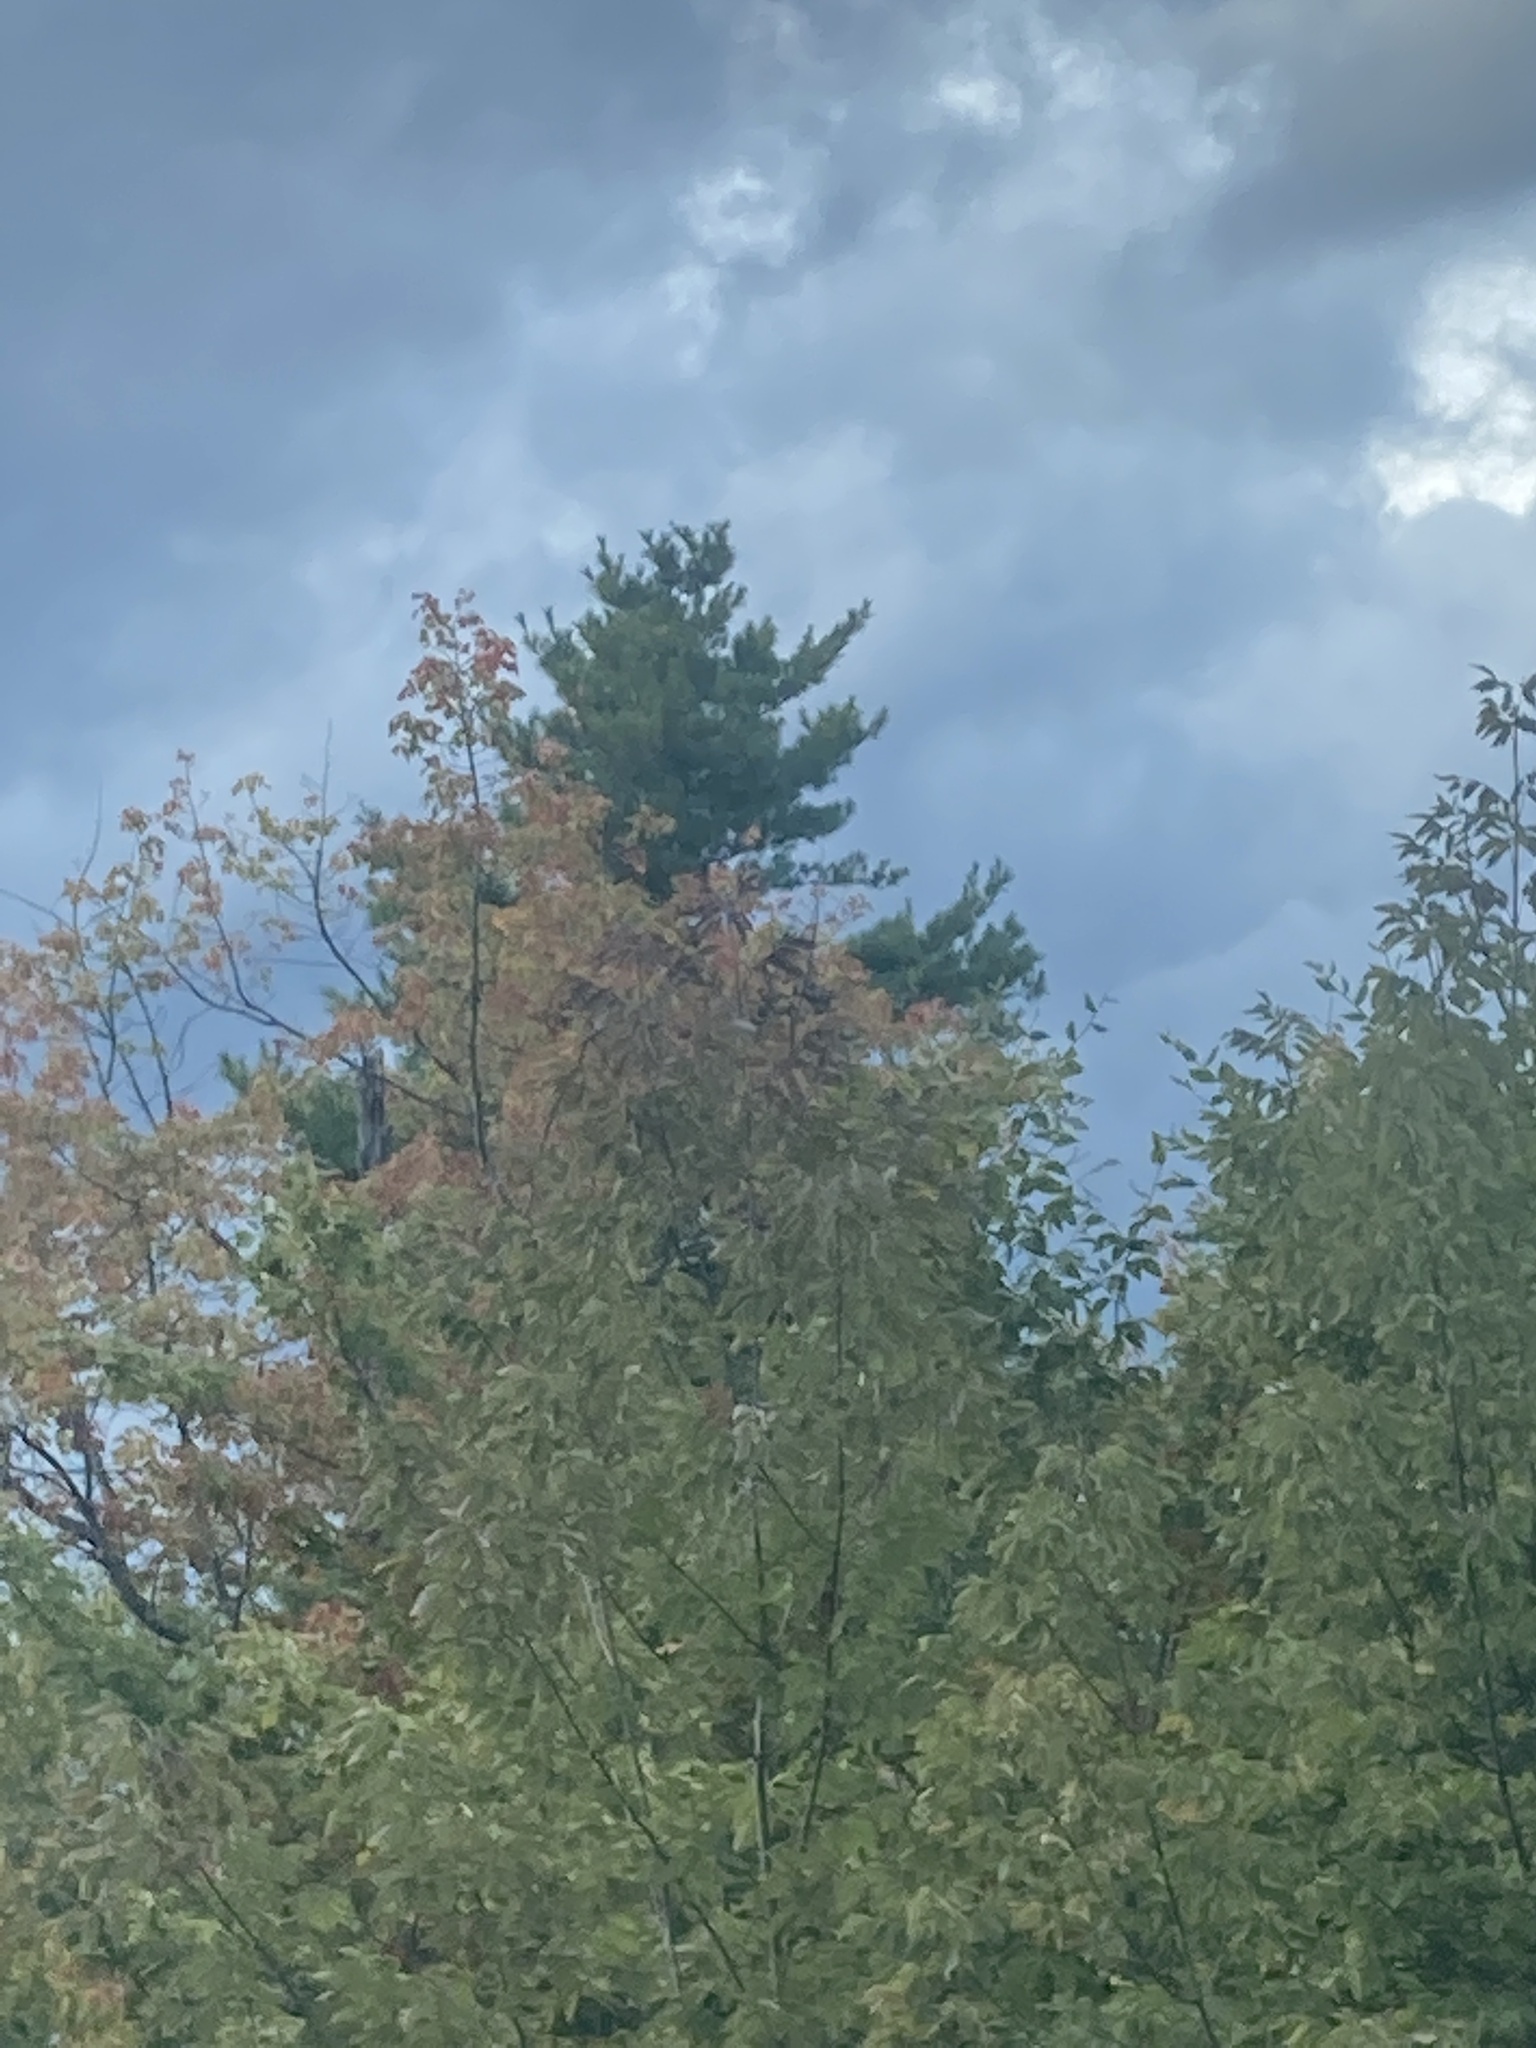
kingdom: Plantae
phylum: Tracheophyta
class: Pinopsida
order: Pinales
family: Pinaceae
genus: Pinus
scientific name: Pinus strobus
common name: Weymouth pine
